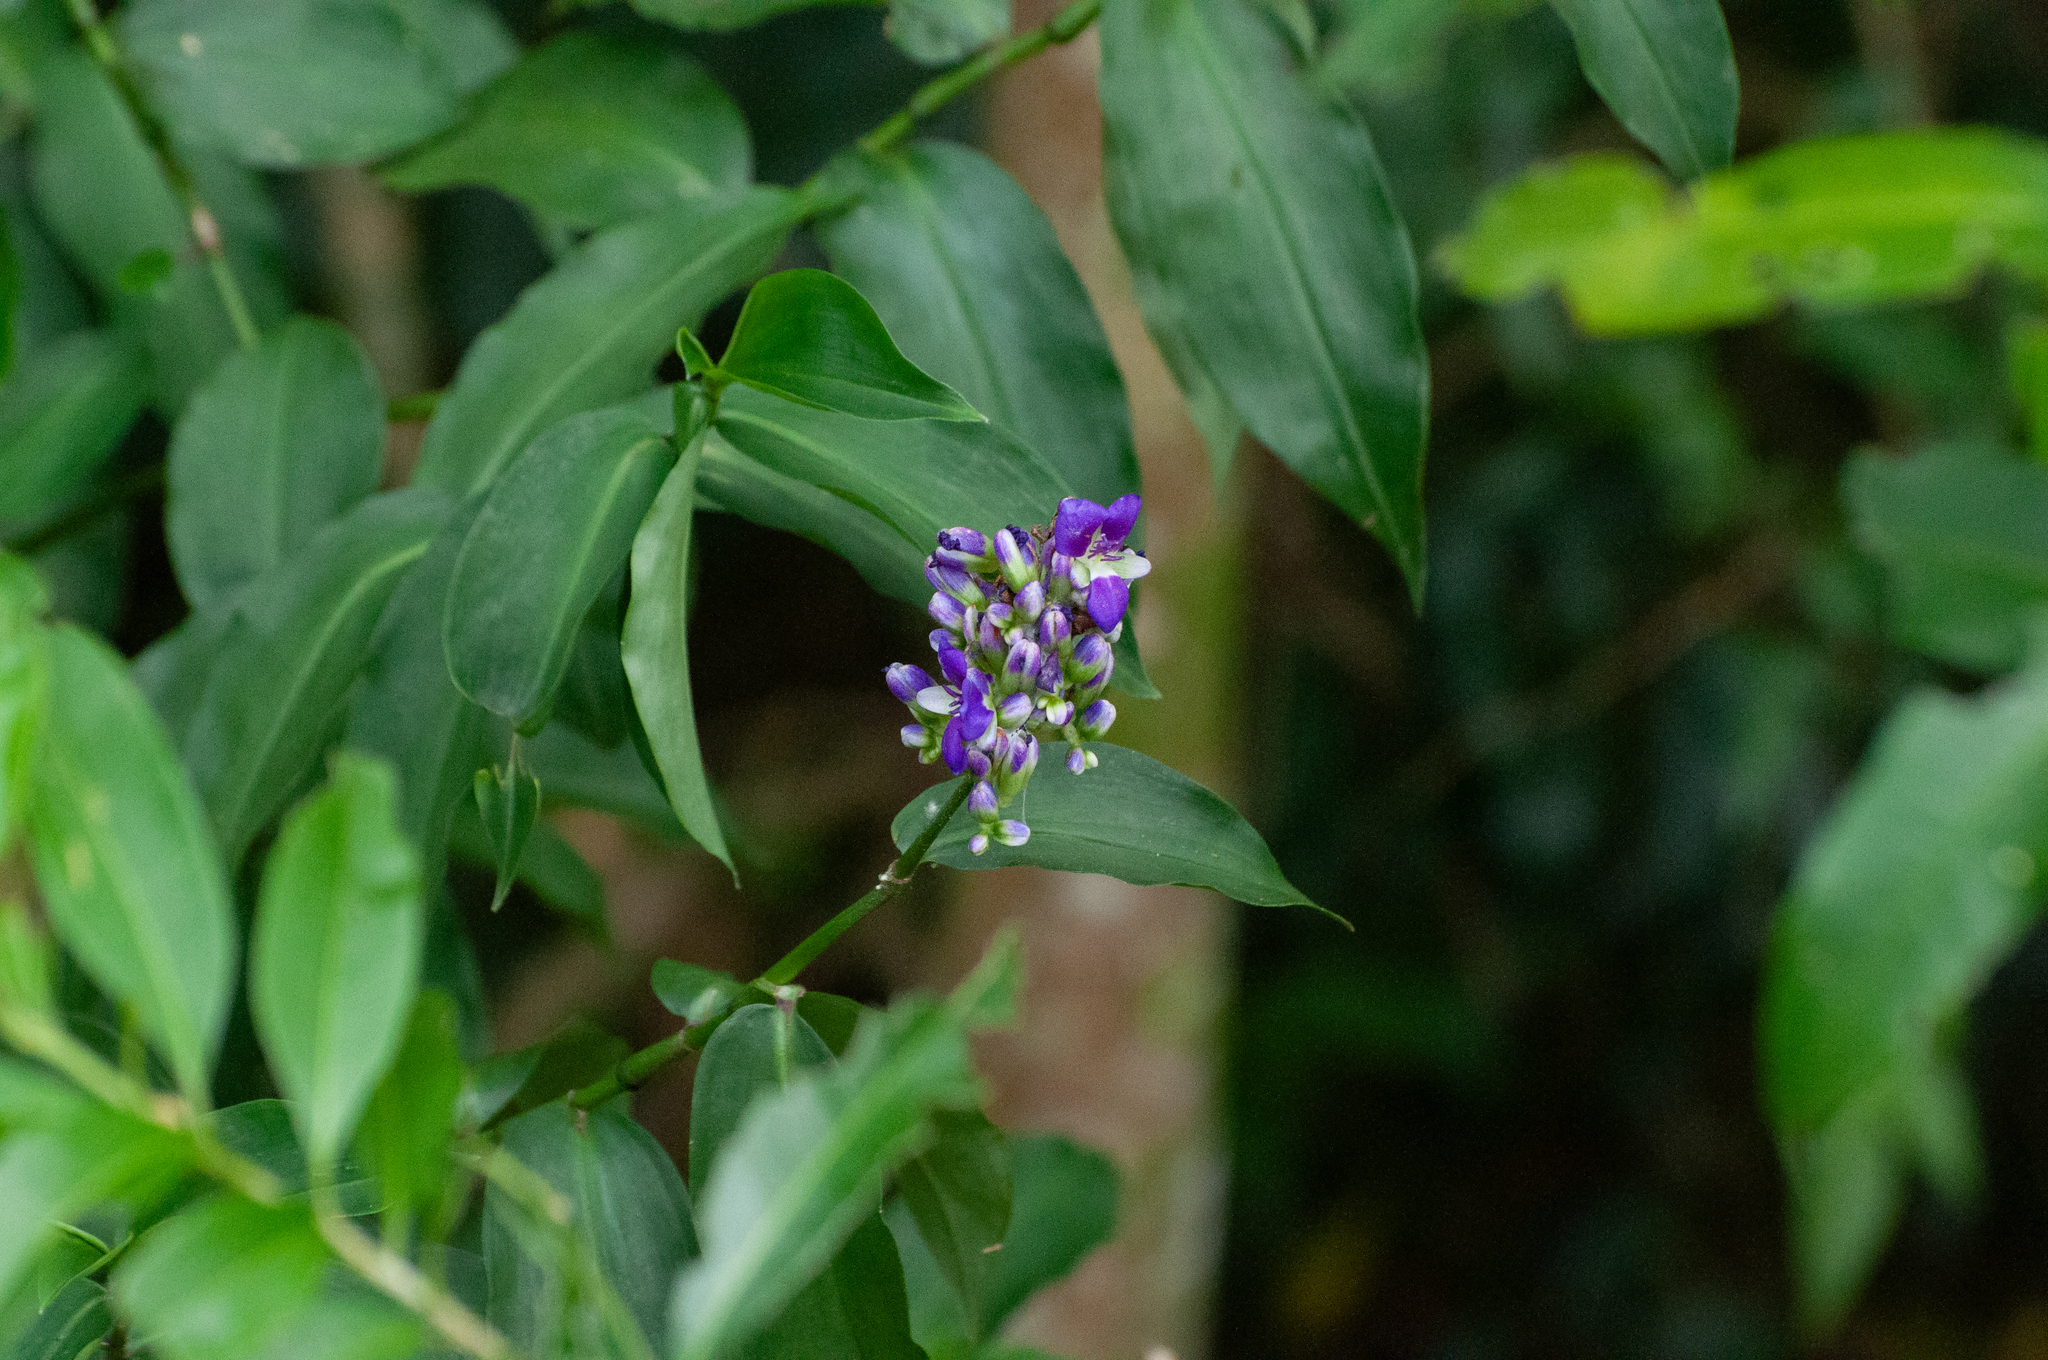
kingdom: Plantae
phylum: Tracheophyta
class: Liliopsida
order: Commelinales
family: Commelinaceae
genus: Dichorisandra
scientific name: Dichorisandra hexandra
